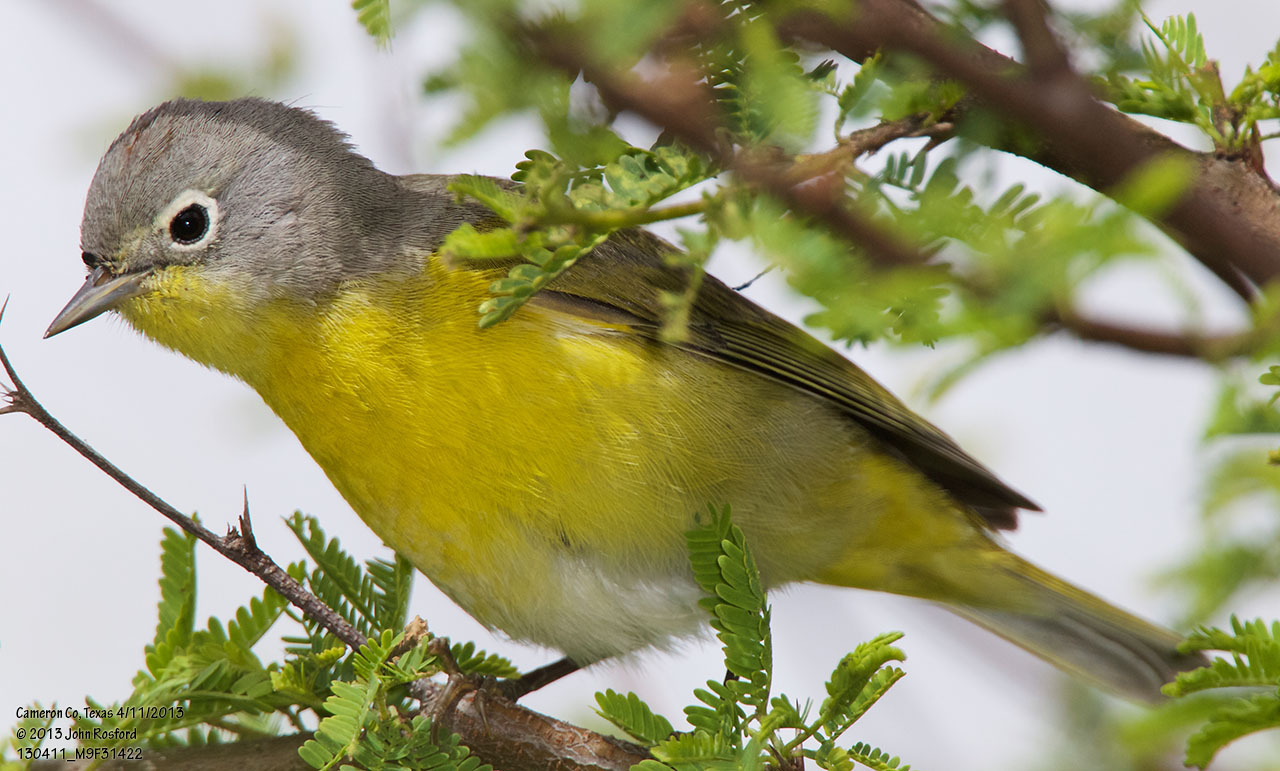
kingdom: Animalia
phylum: Chordata
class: Aves
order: Passeriformes
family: Parulidae
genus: Leiothlypis
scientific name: Leiothlypis ruficapilla
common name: Nashville warbler
